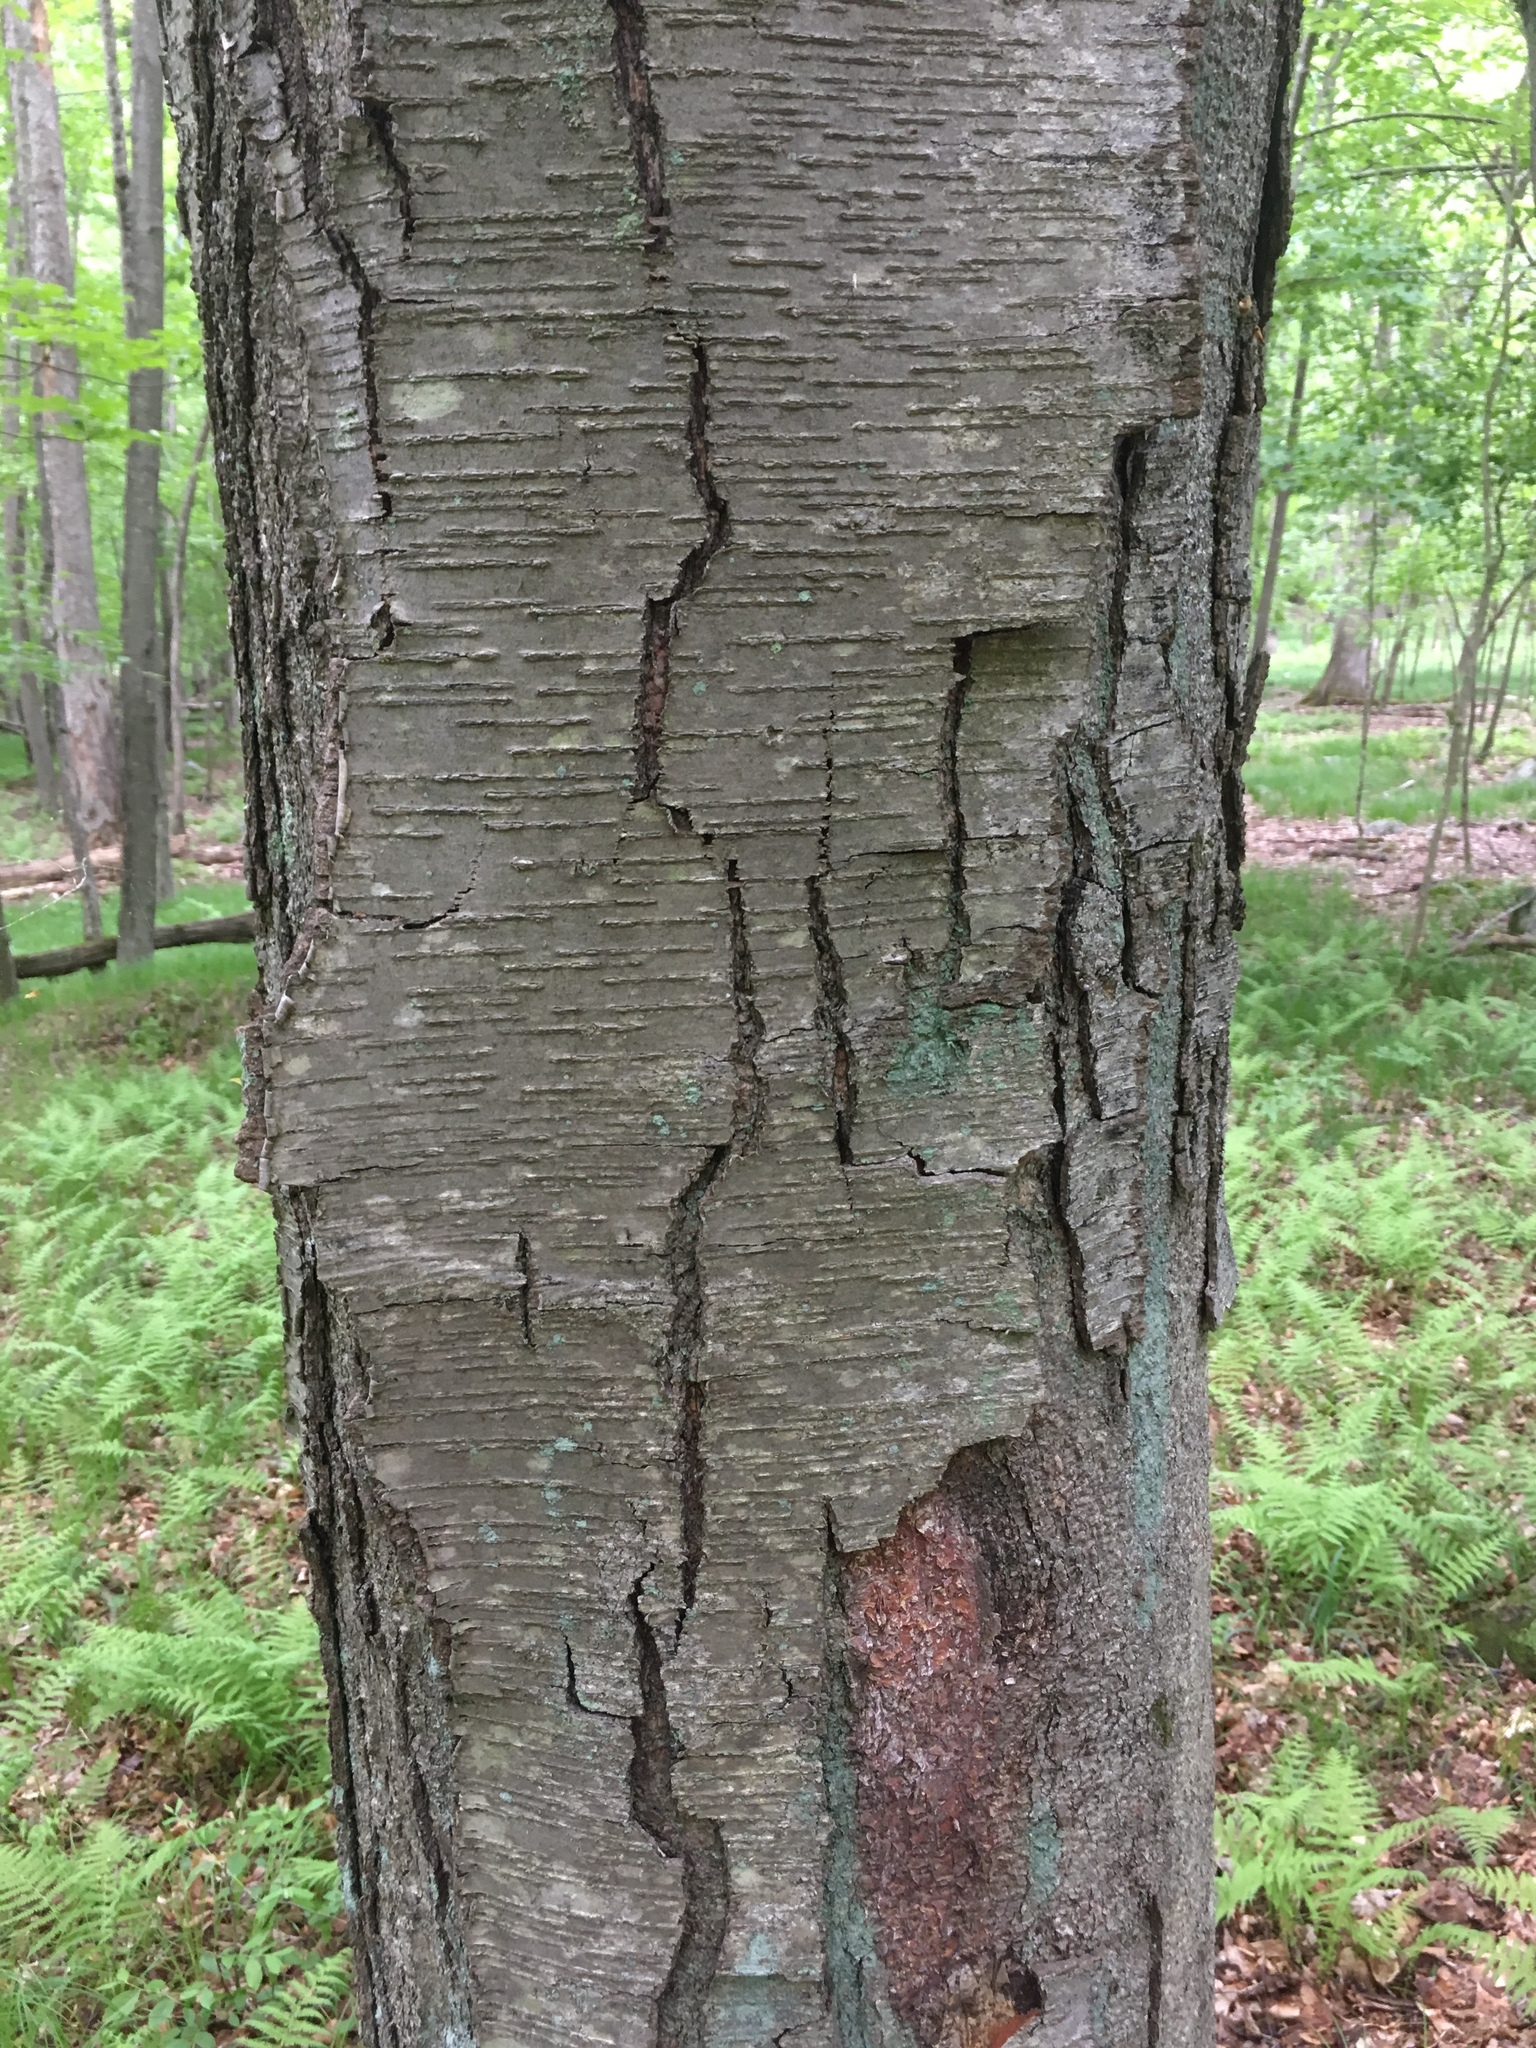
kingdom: Plantae
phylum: Tracheophyta
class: Magnoliopsida
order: Fagales
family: Betulaceae
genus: Betula
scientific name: Betula lenta
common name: Black birch
